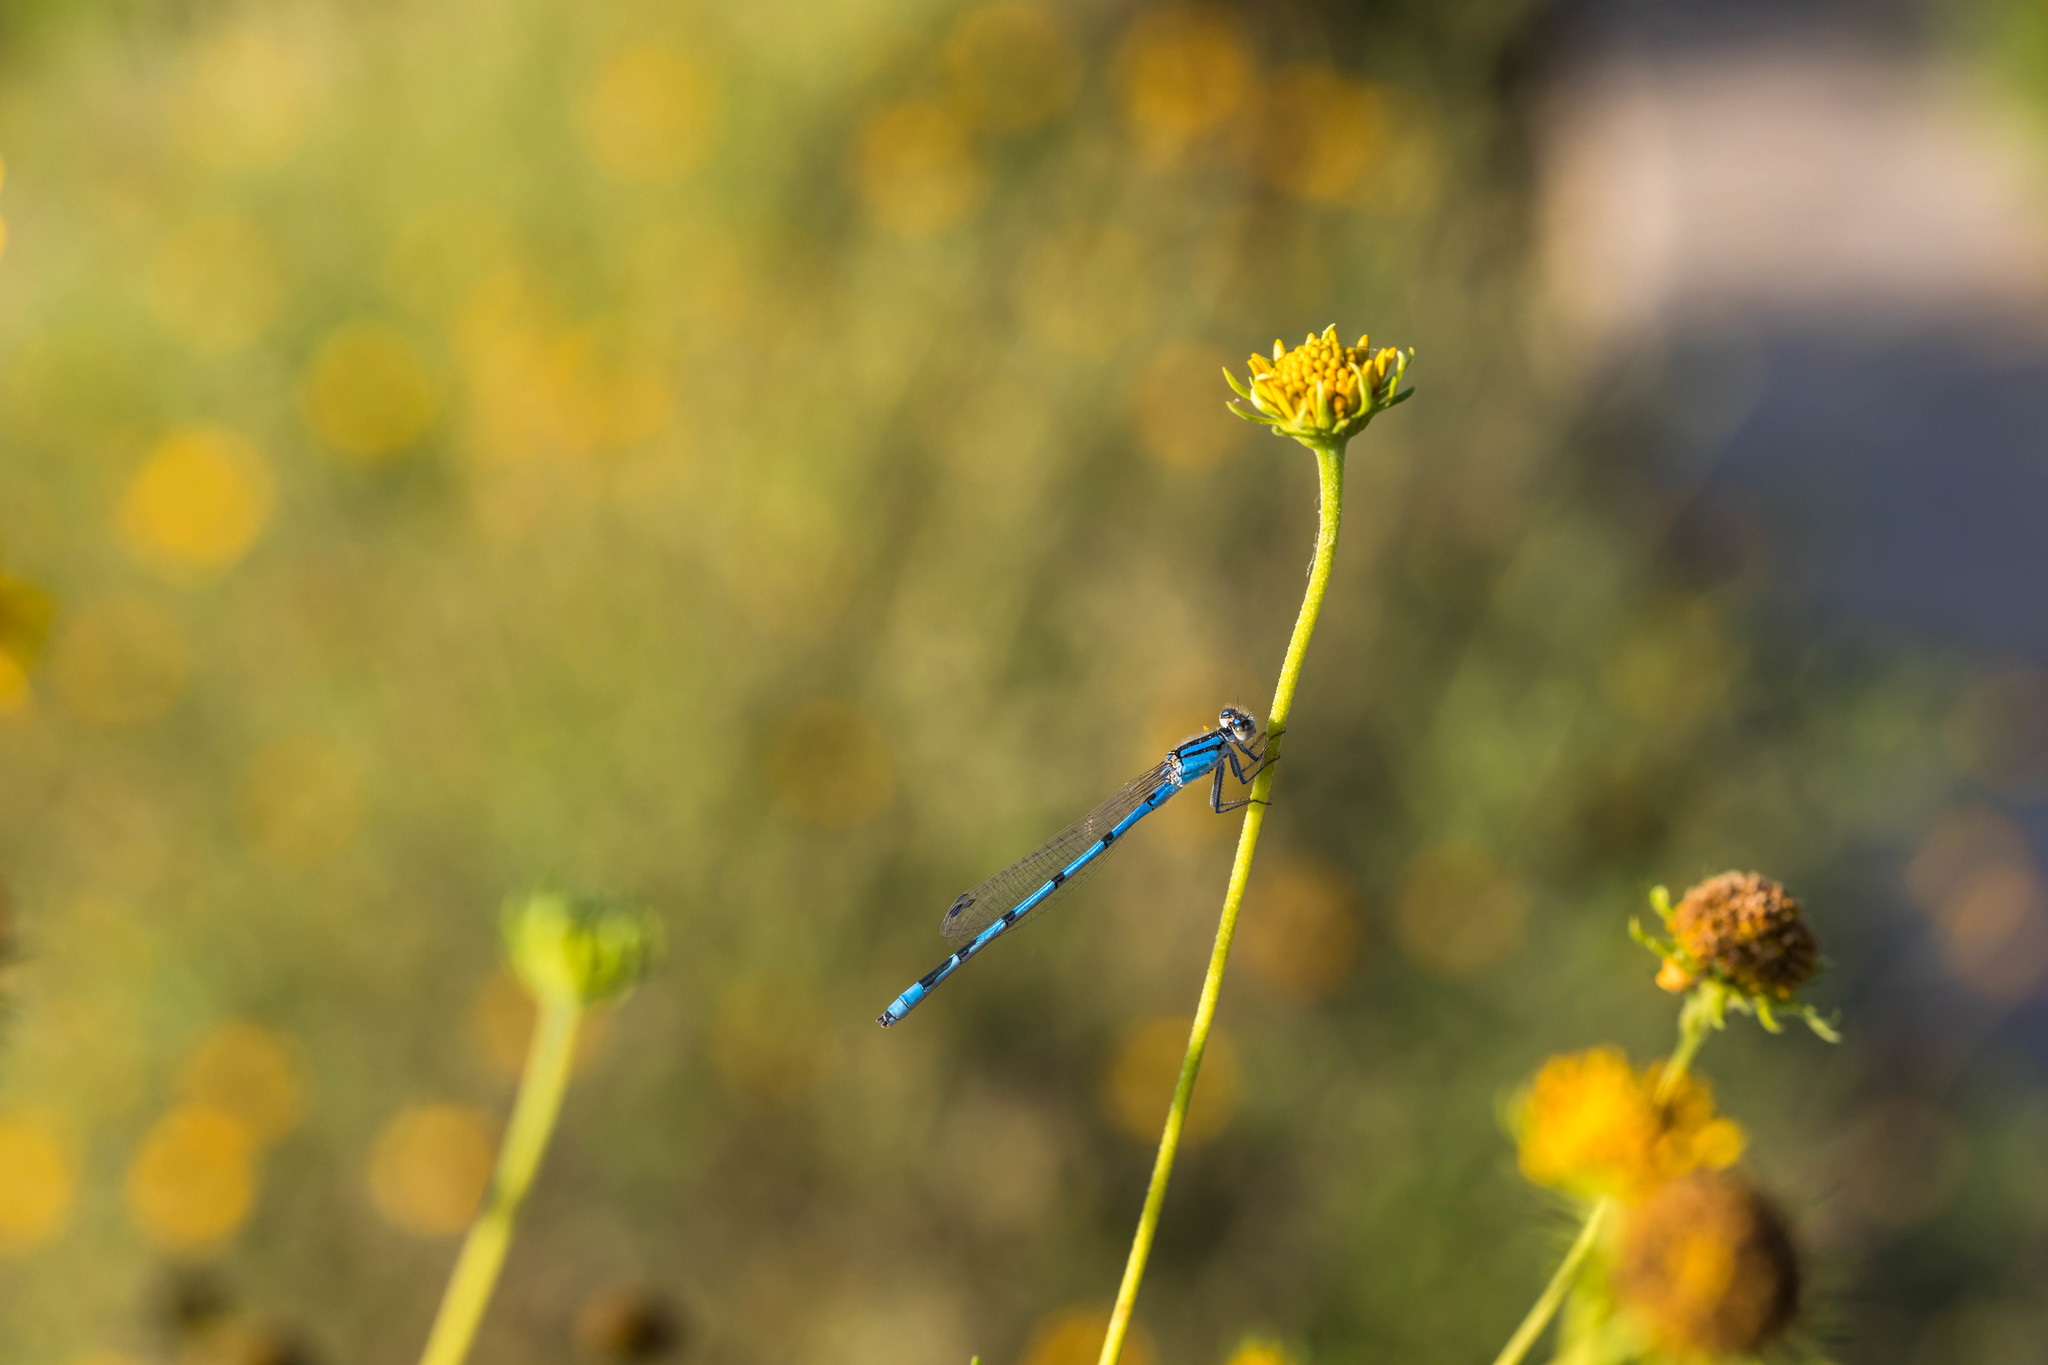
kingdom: Animalia
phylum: Arthropoda
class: Insecta
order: Odonata
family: Coenagrionidae
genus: Enallagma
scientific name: Enallagma civile
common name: Damselfly
